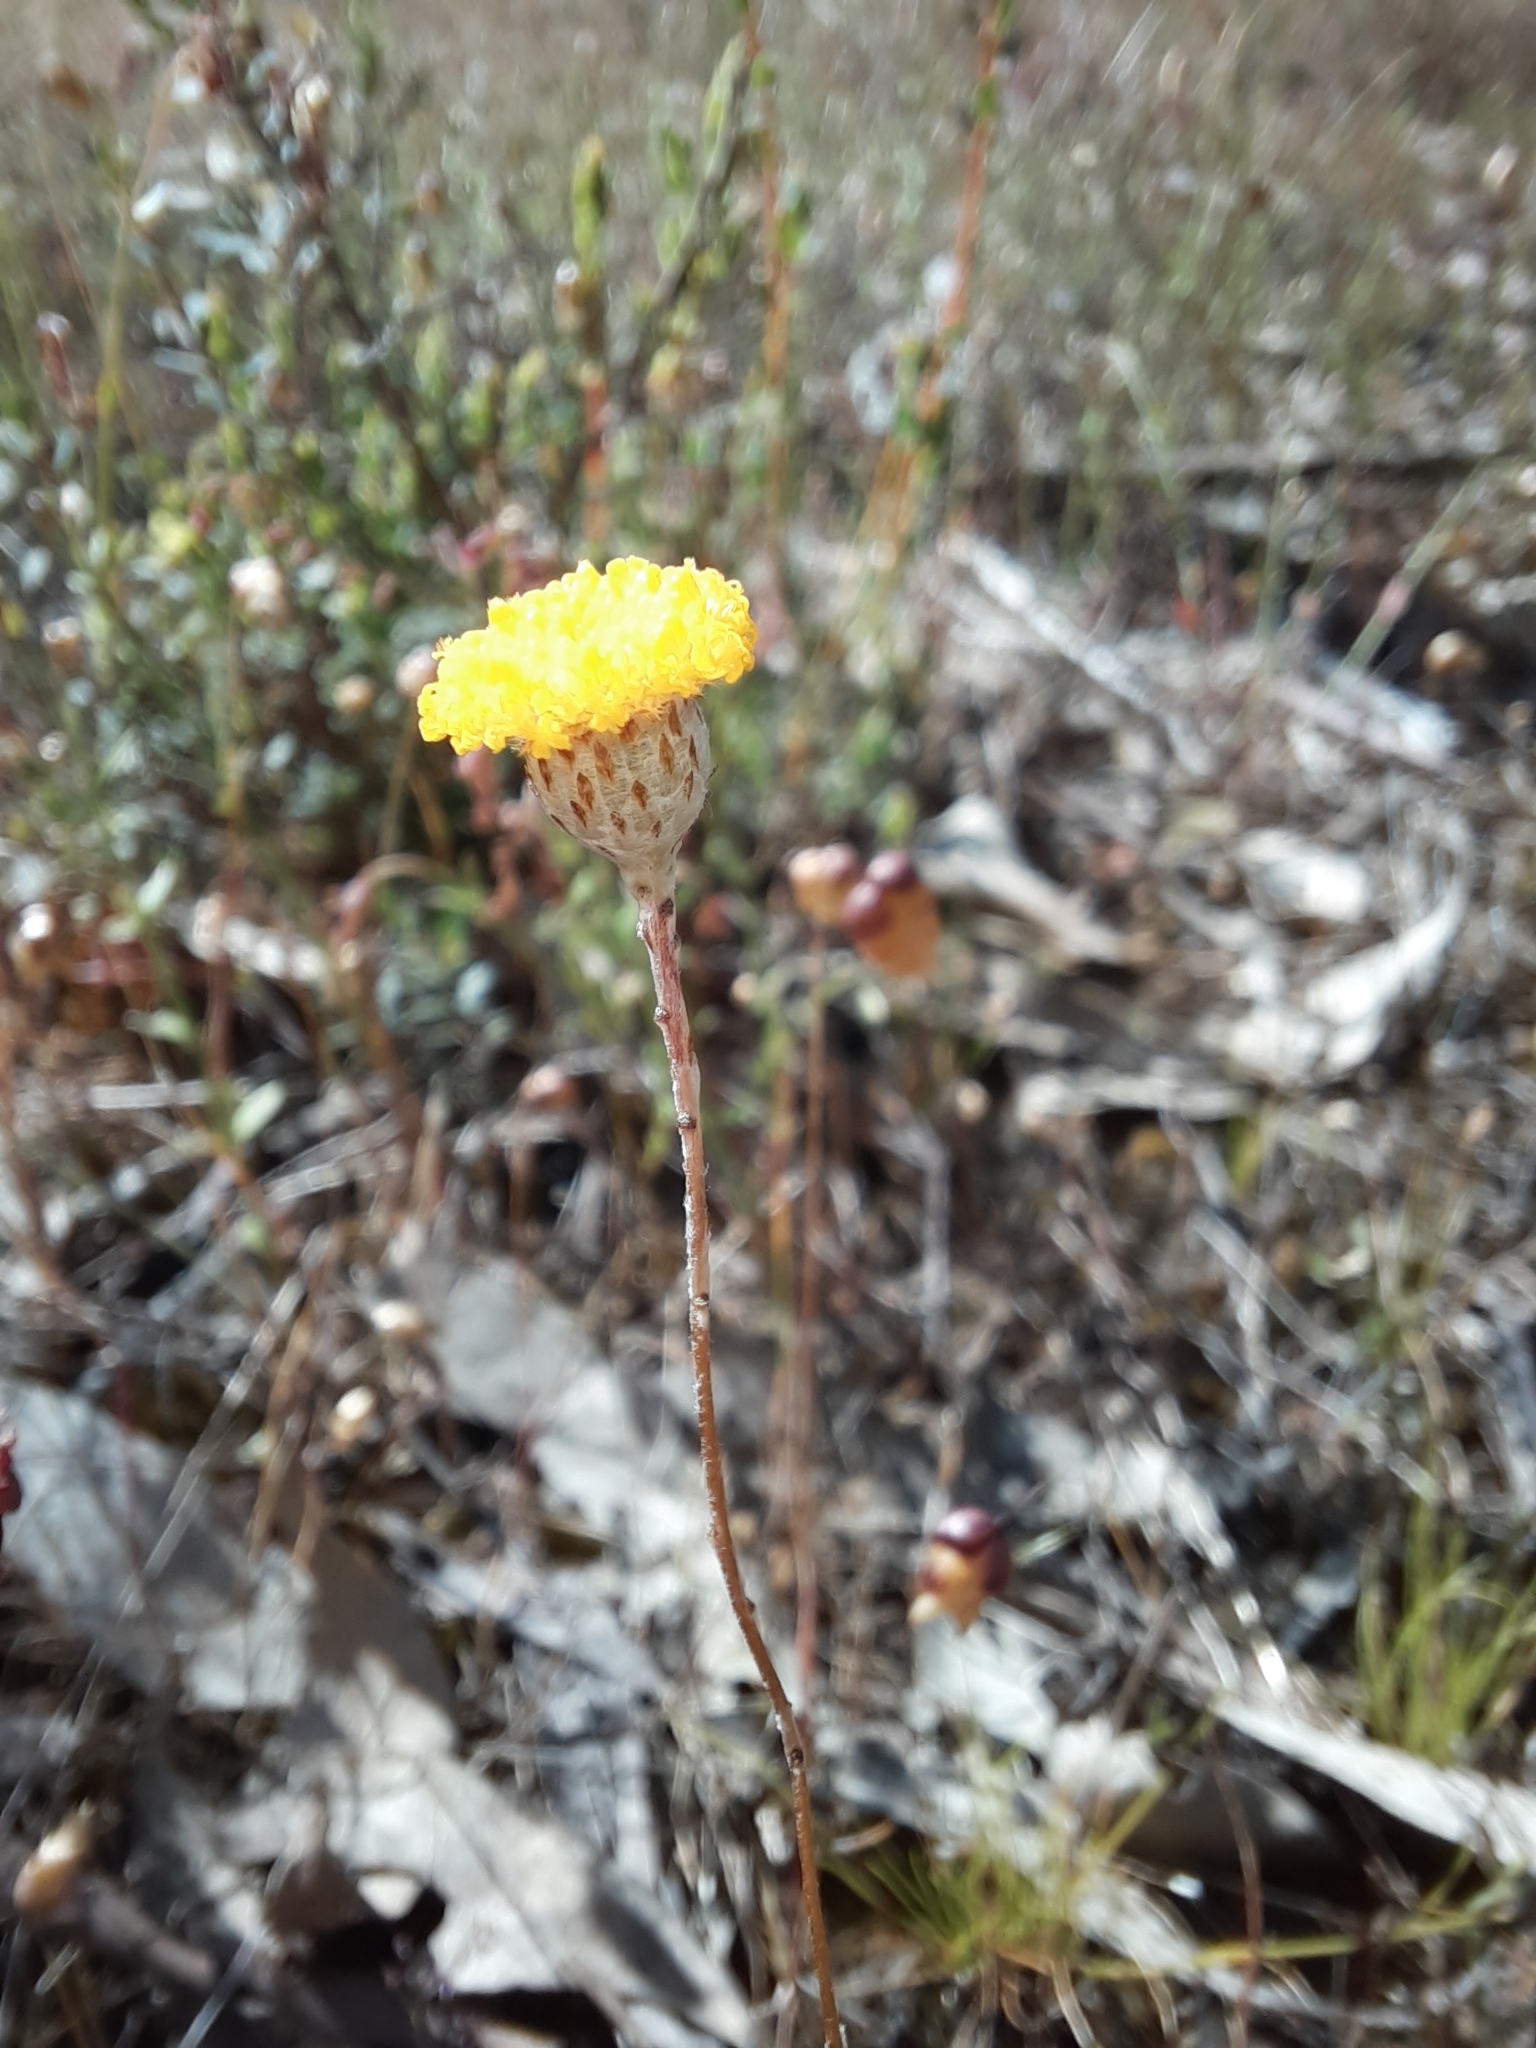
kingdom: Plantae
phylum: Tracheophyta
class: Magnoliopsida
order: Asterales
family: Asteraceae
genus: Leptorhynchos
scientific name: Leptorhynchos squamatus
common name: Scaly-buttons
